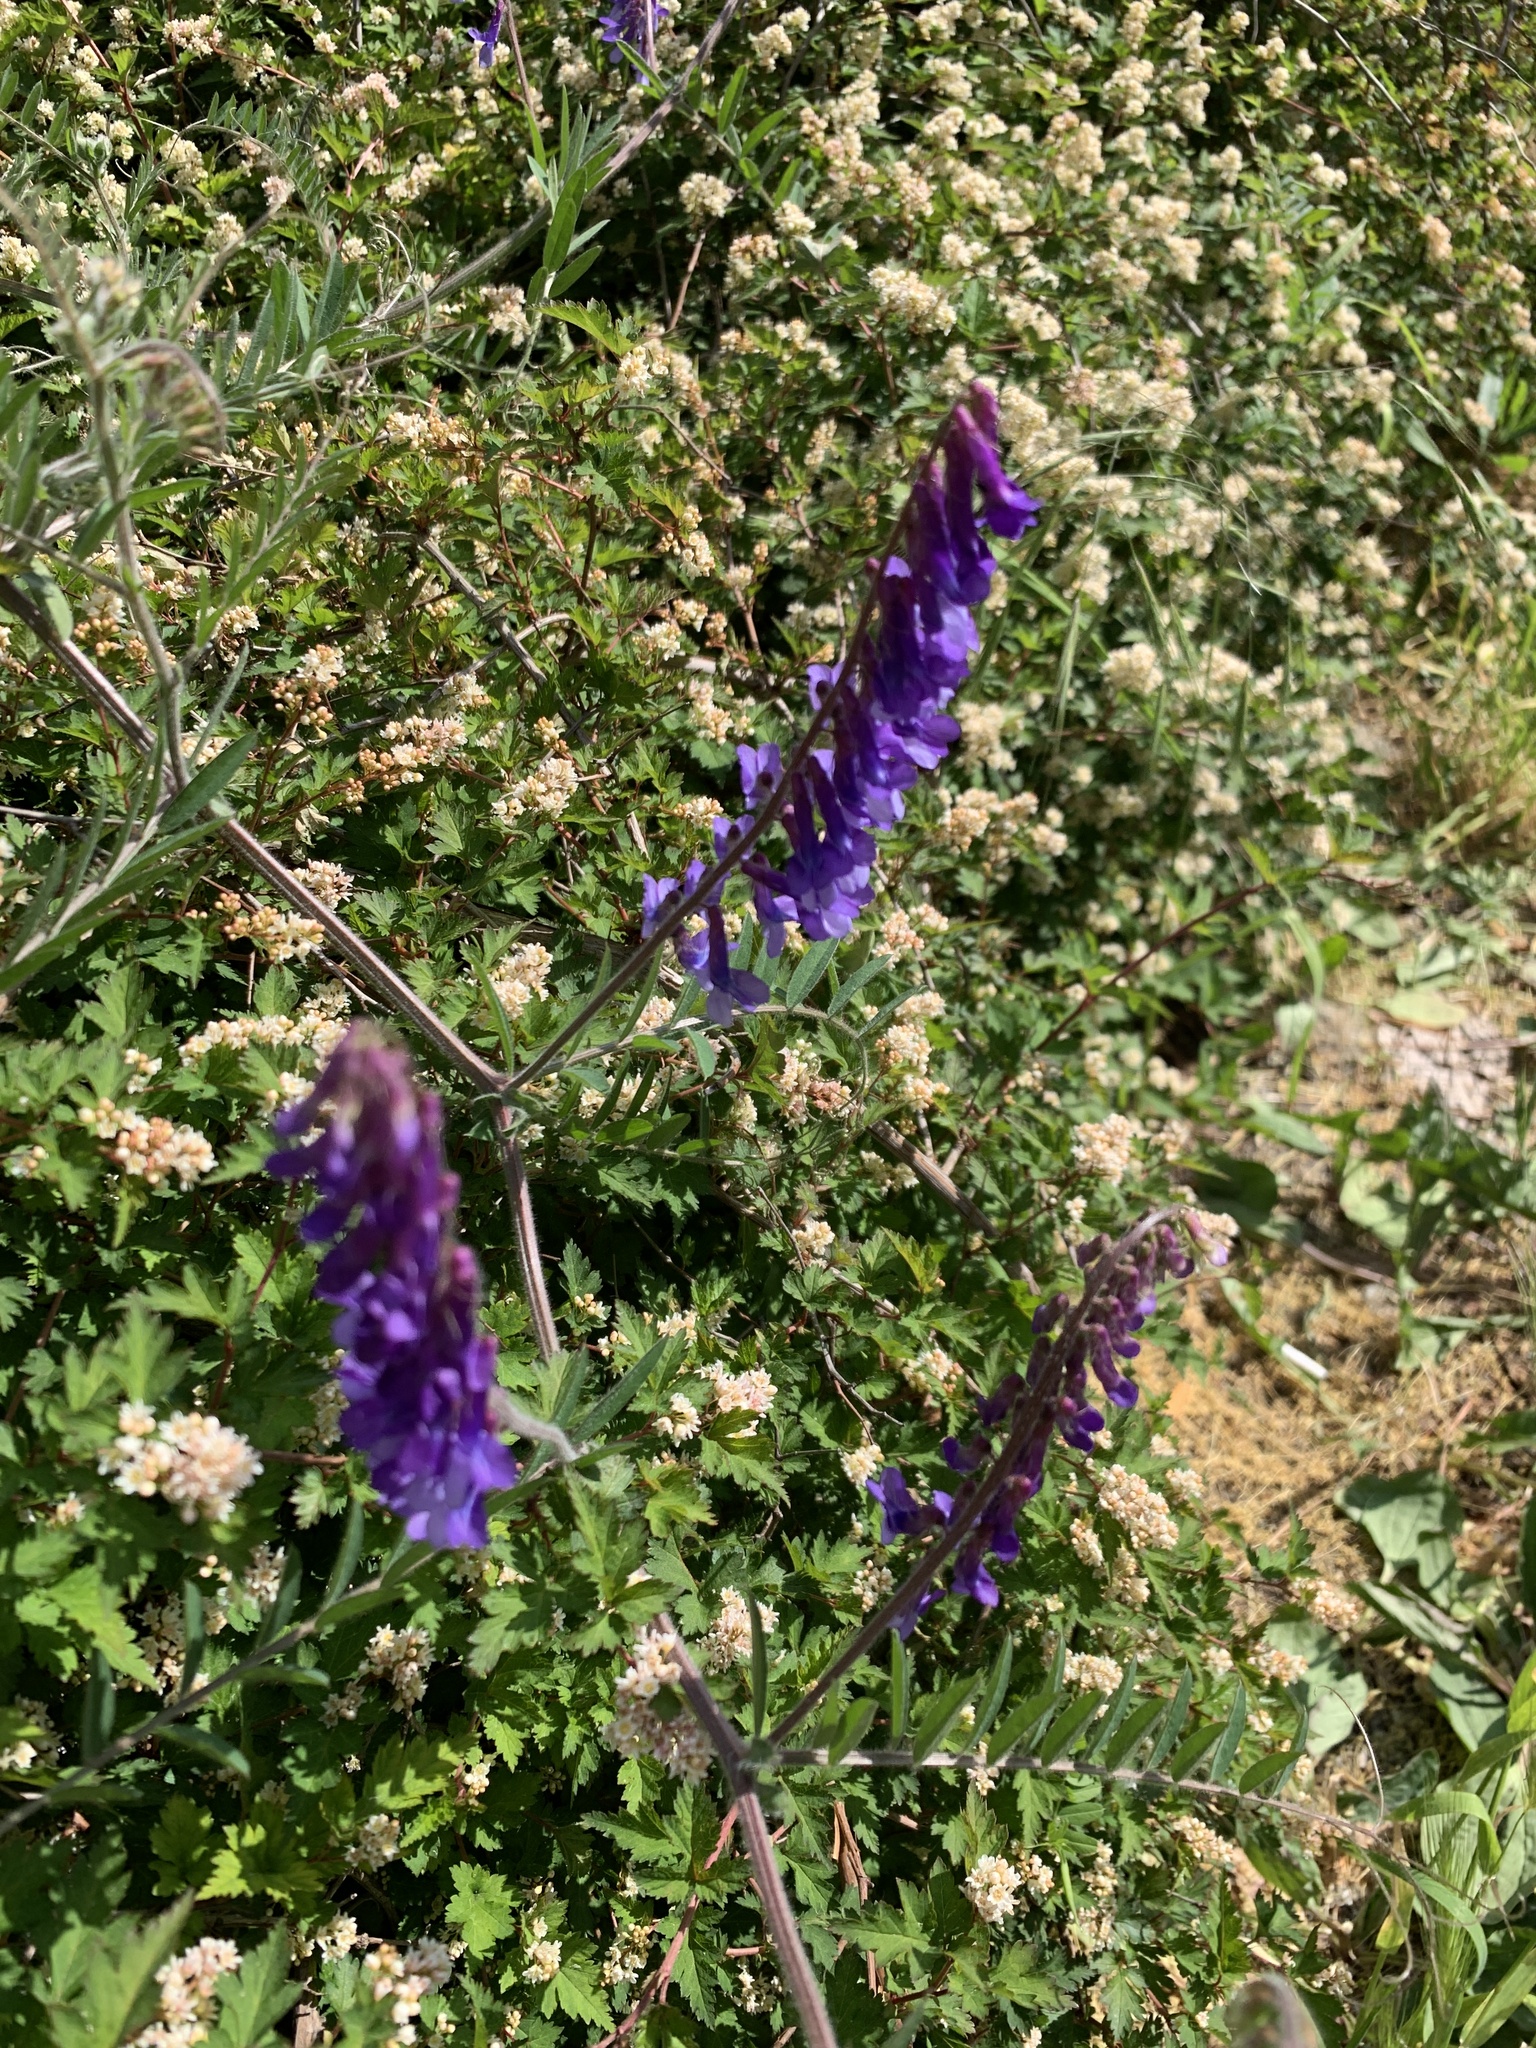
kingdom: Plantae
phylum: Tracheophyta
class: Magnoliopsida
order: Fabales
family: Fabaceae
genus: Vicia
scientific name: Vicia villosa
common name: Fodder vetch
